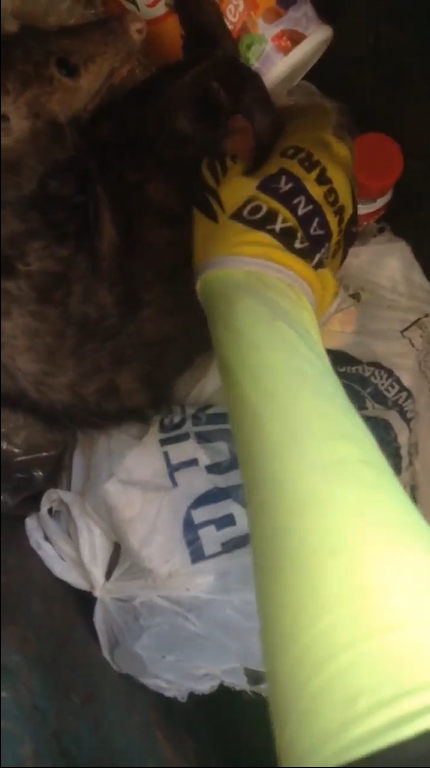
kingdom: Animalia
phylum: Chordata
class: Mammalia
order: Didelphimorphia
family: Didelphidae
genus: Didelphis
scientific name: Didelphis virginiana
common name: Virginia opossum
